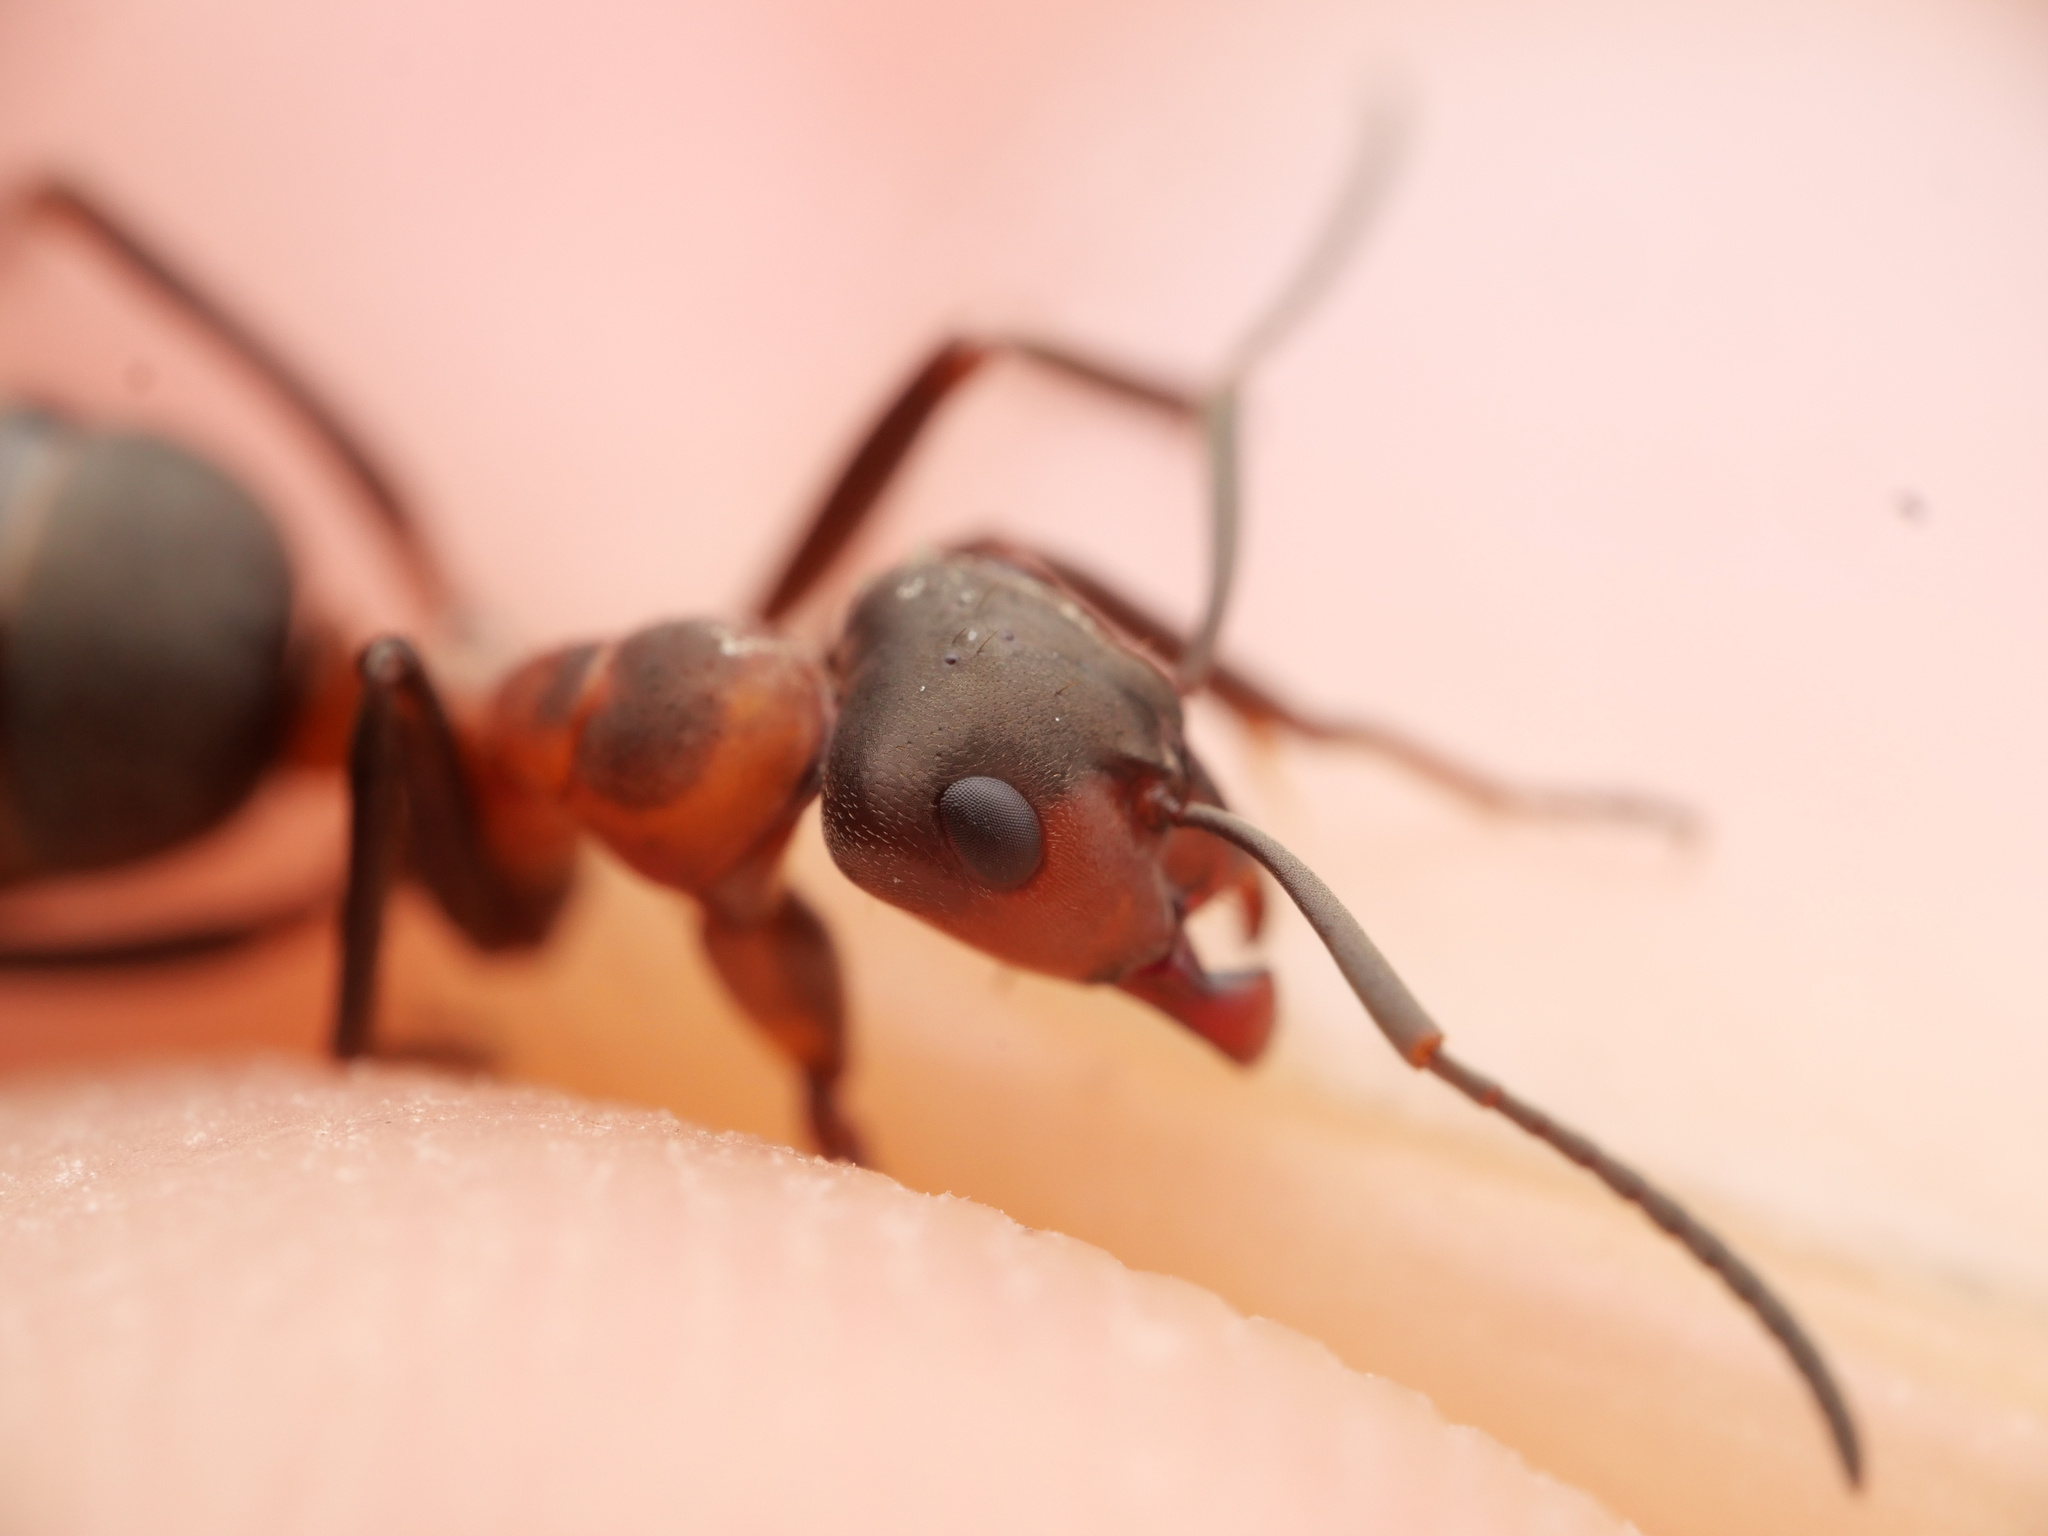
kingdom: Animalia
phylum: Arthropoda
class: Insecta
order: Hymenoptera
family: Formicidae
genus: Formica
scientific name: Formica rufa
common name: Red wood ant
